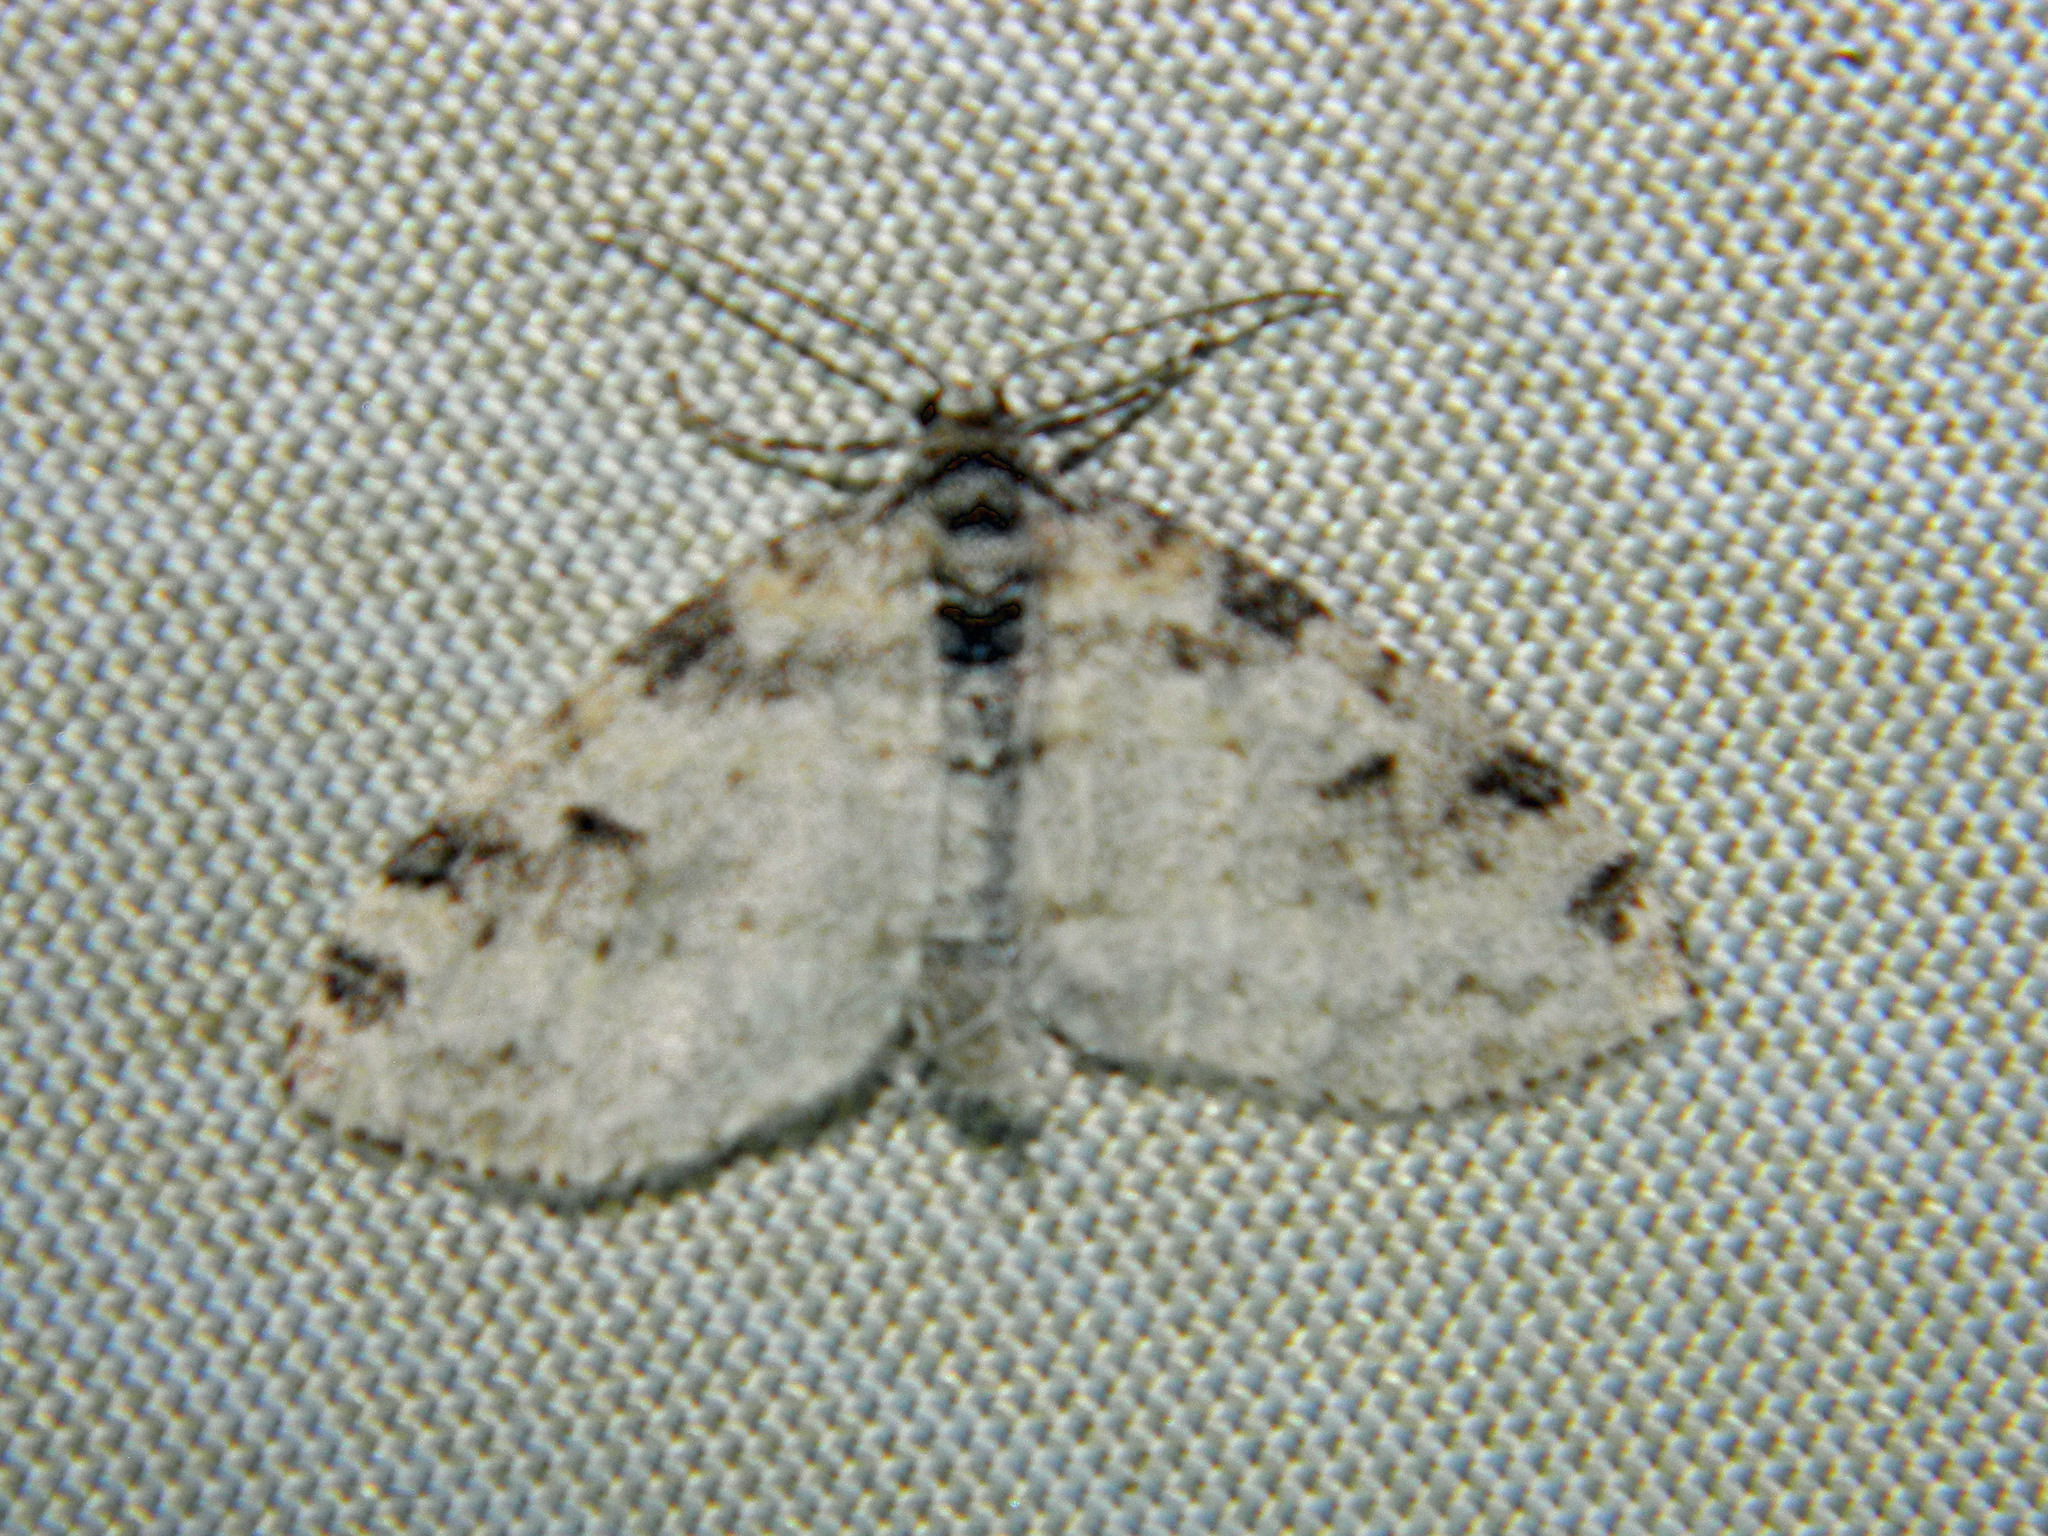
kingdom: Animalia
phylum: Arthropoda
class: Insecta
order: Lepidoptera
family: Geometridae
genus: Lobophora
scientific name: Lobophora nivigerata
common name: Powdered bigwing
